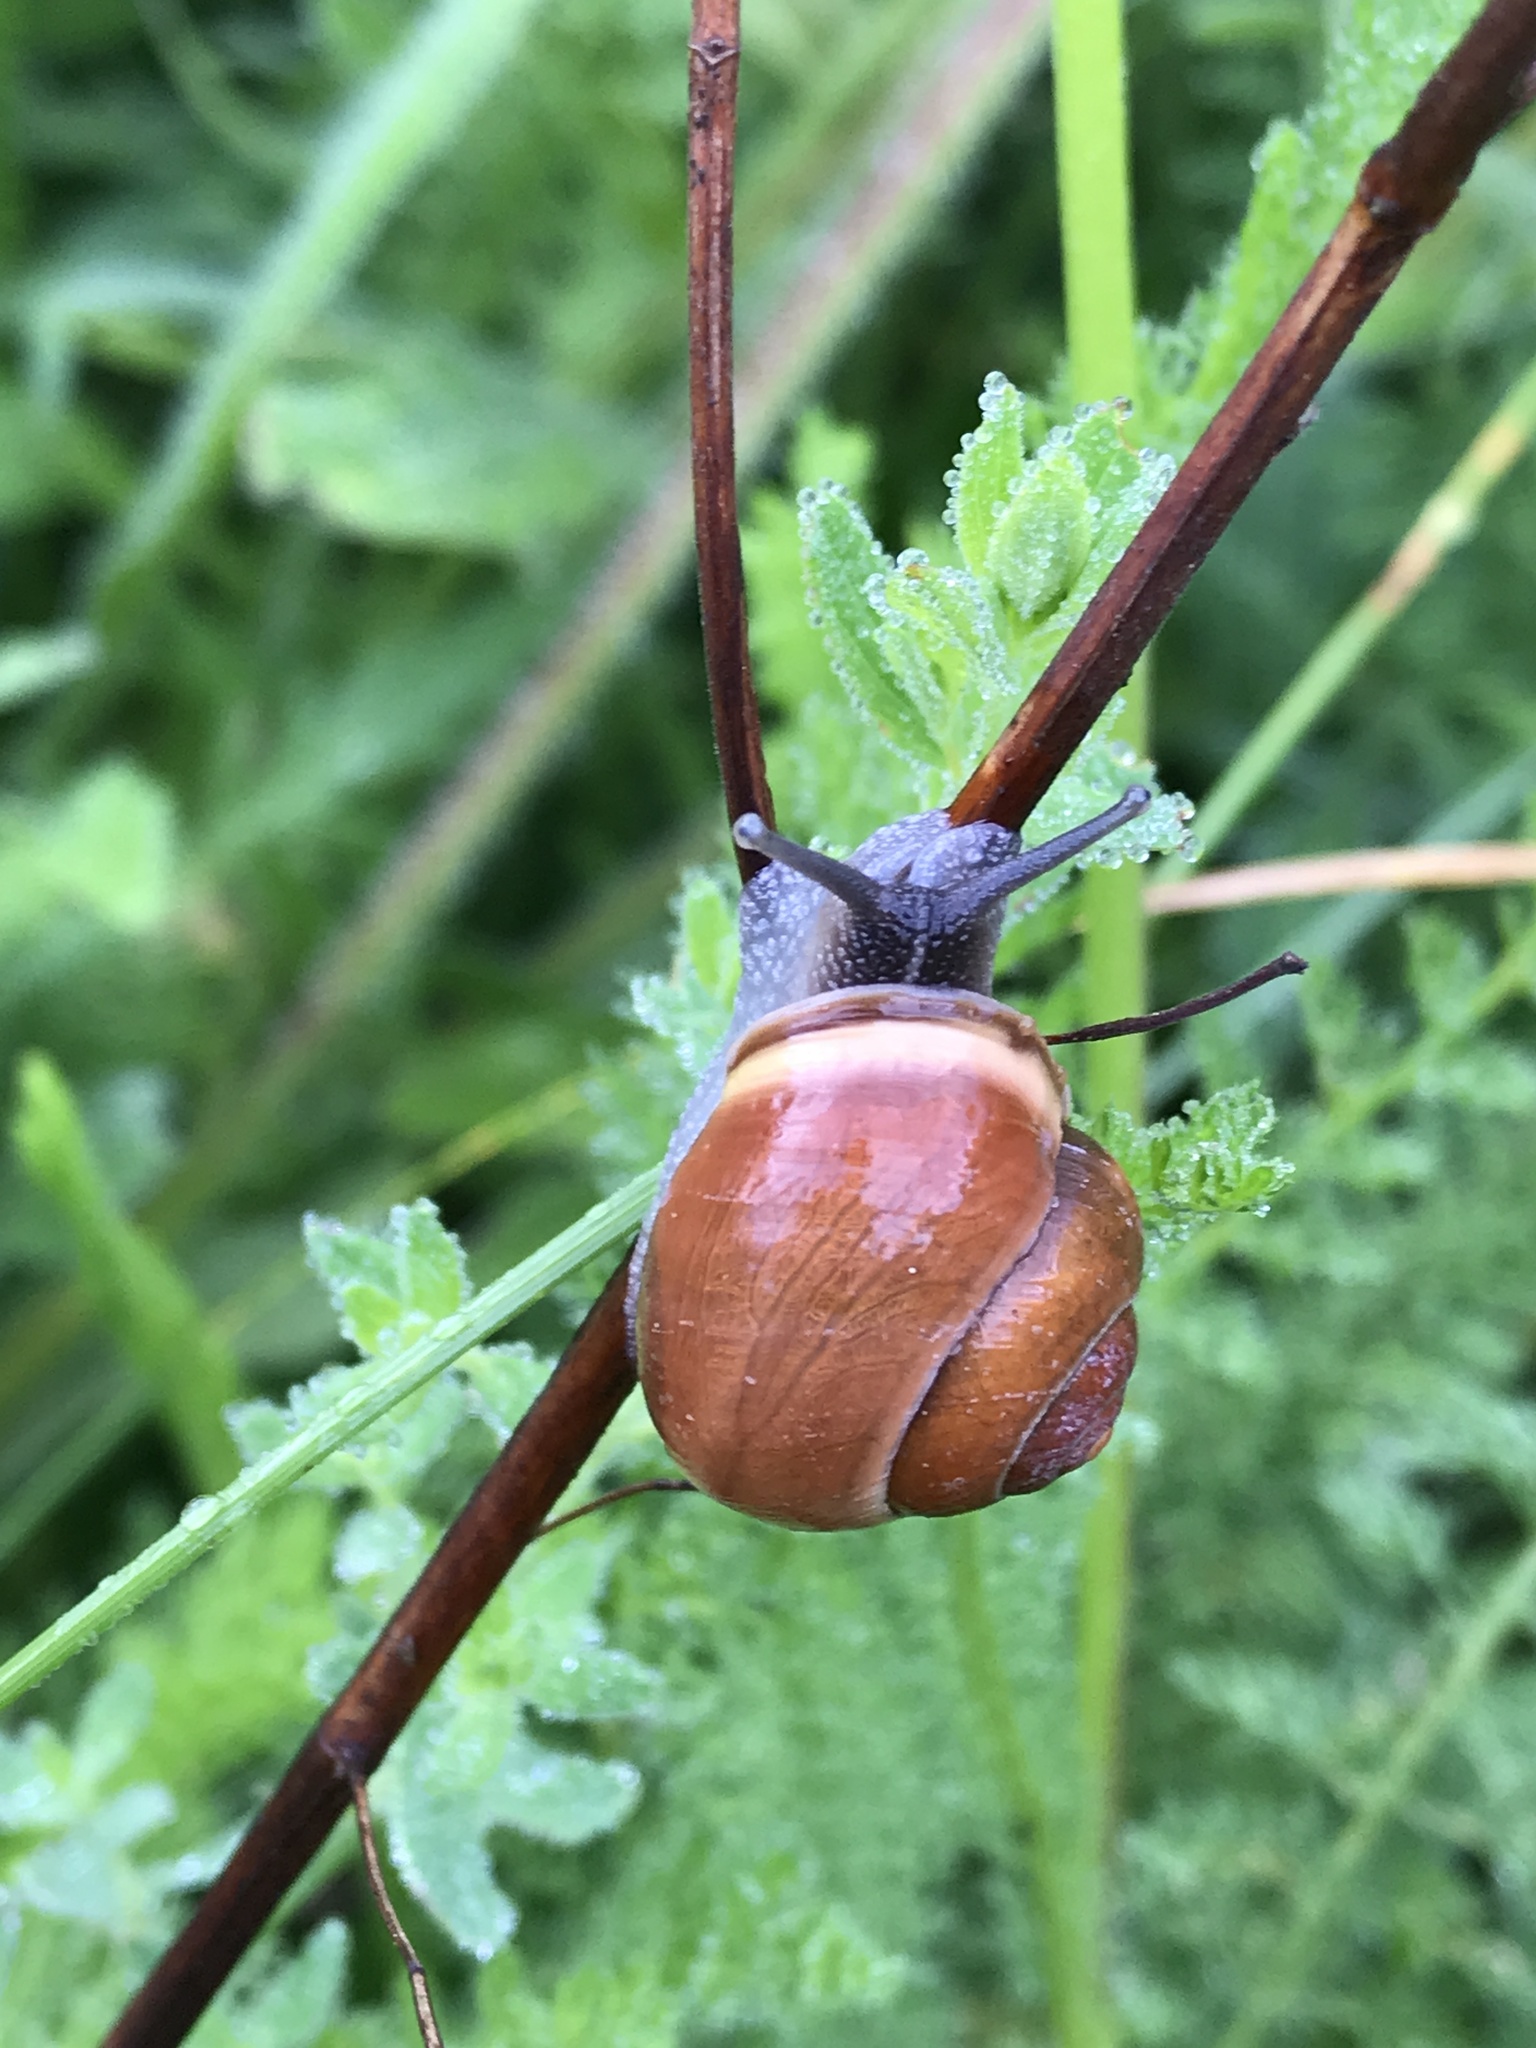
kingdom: Animalia
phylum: Mollusca
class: Gastropoda
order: Stylommatophora
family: Helicidae
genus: Cepaea
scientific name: Cepaea nemoralis
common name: Grovesnail
